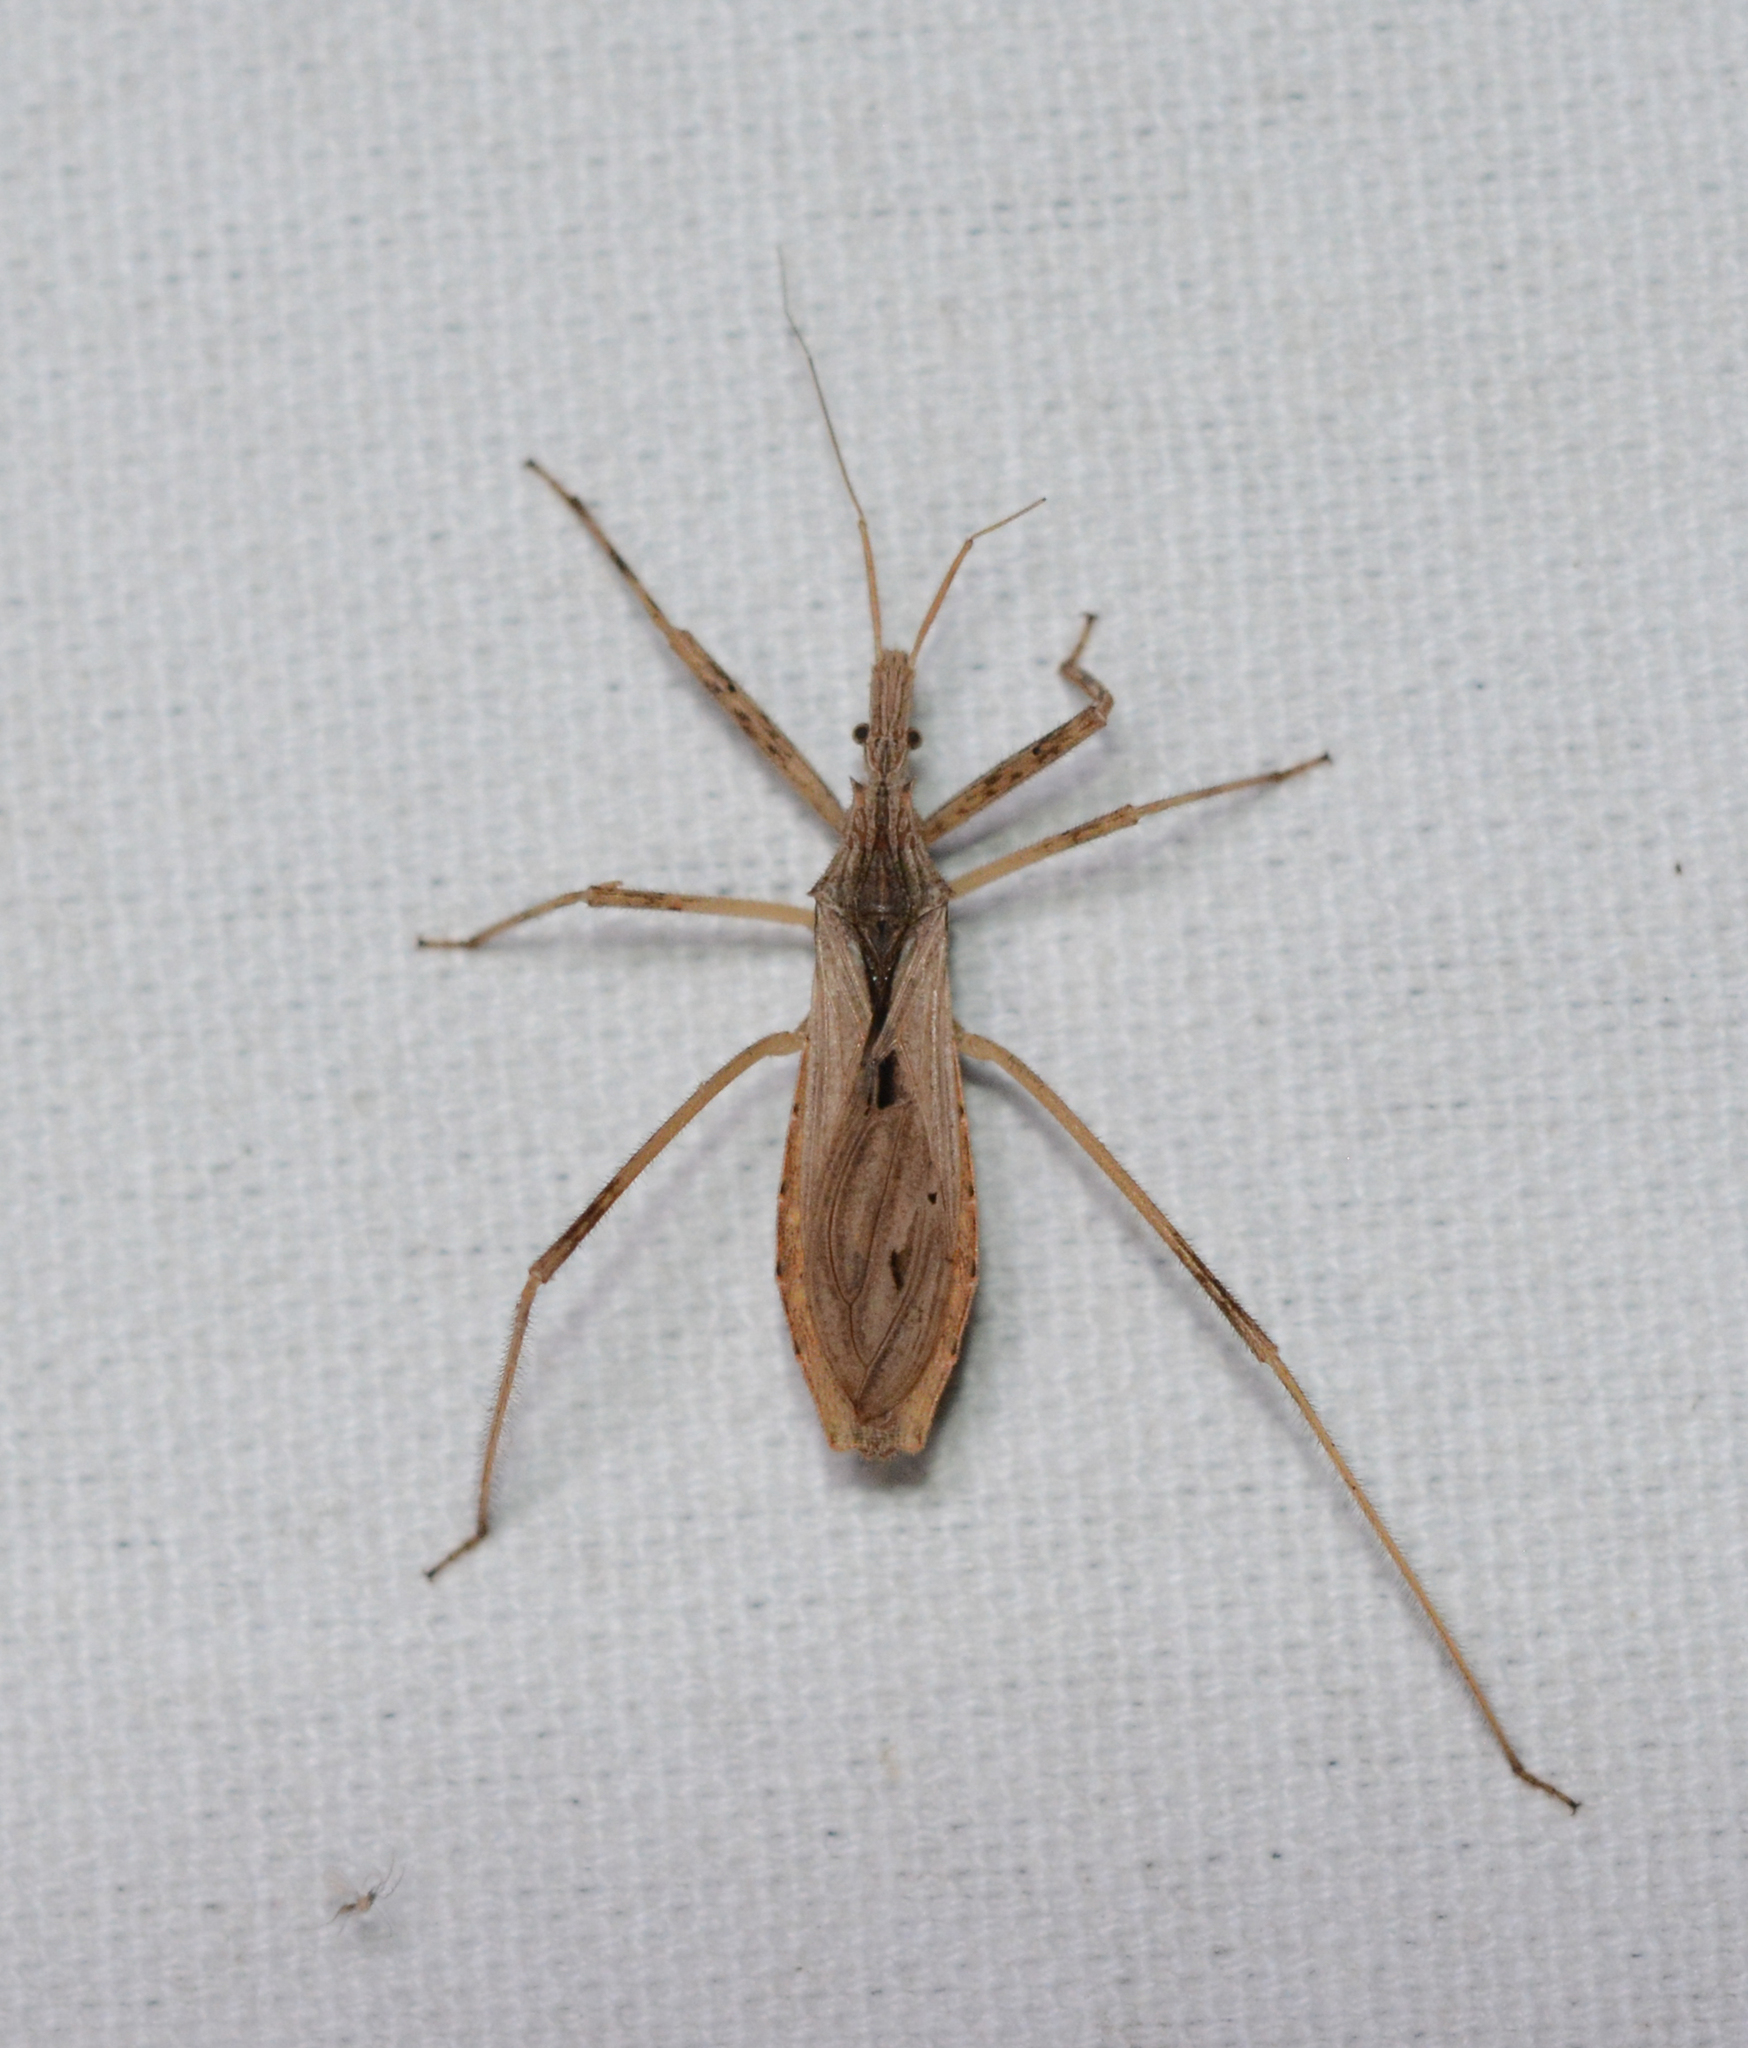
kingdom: Animalia
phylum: Arthropoda
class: Insecta
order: Hemiptera
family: Reduviidae
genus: Stenopoda
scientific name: Stenopoda spinulosa
